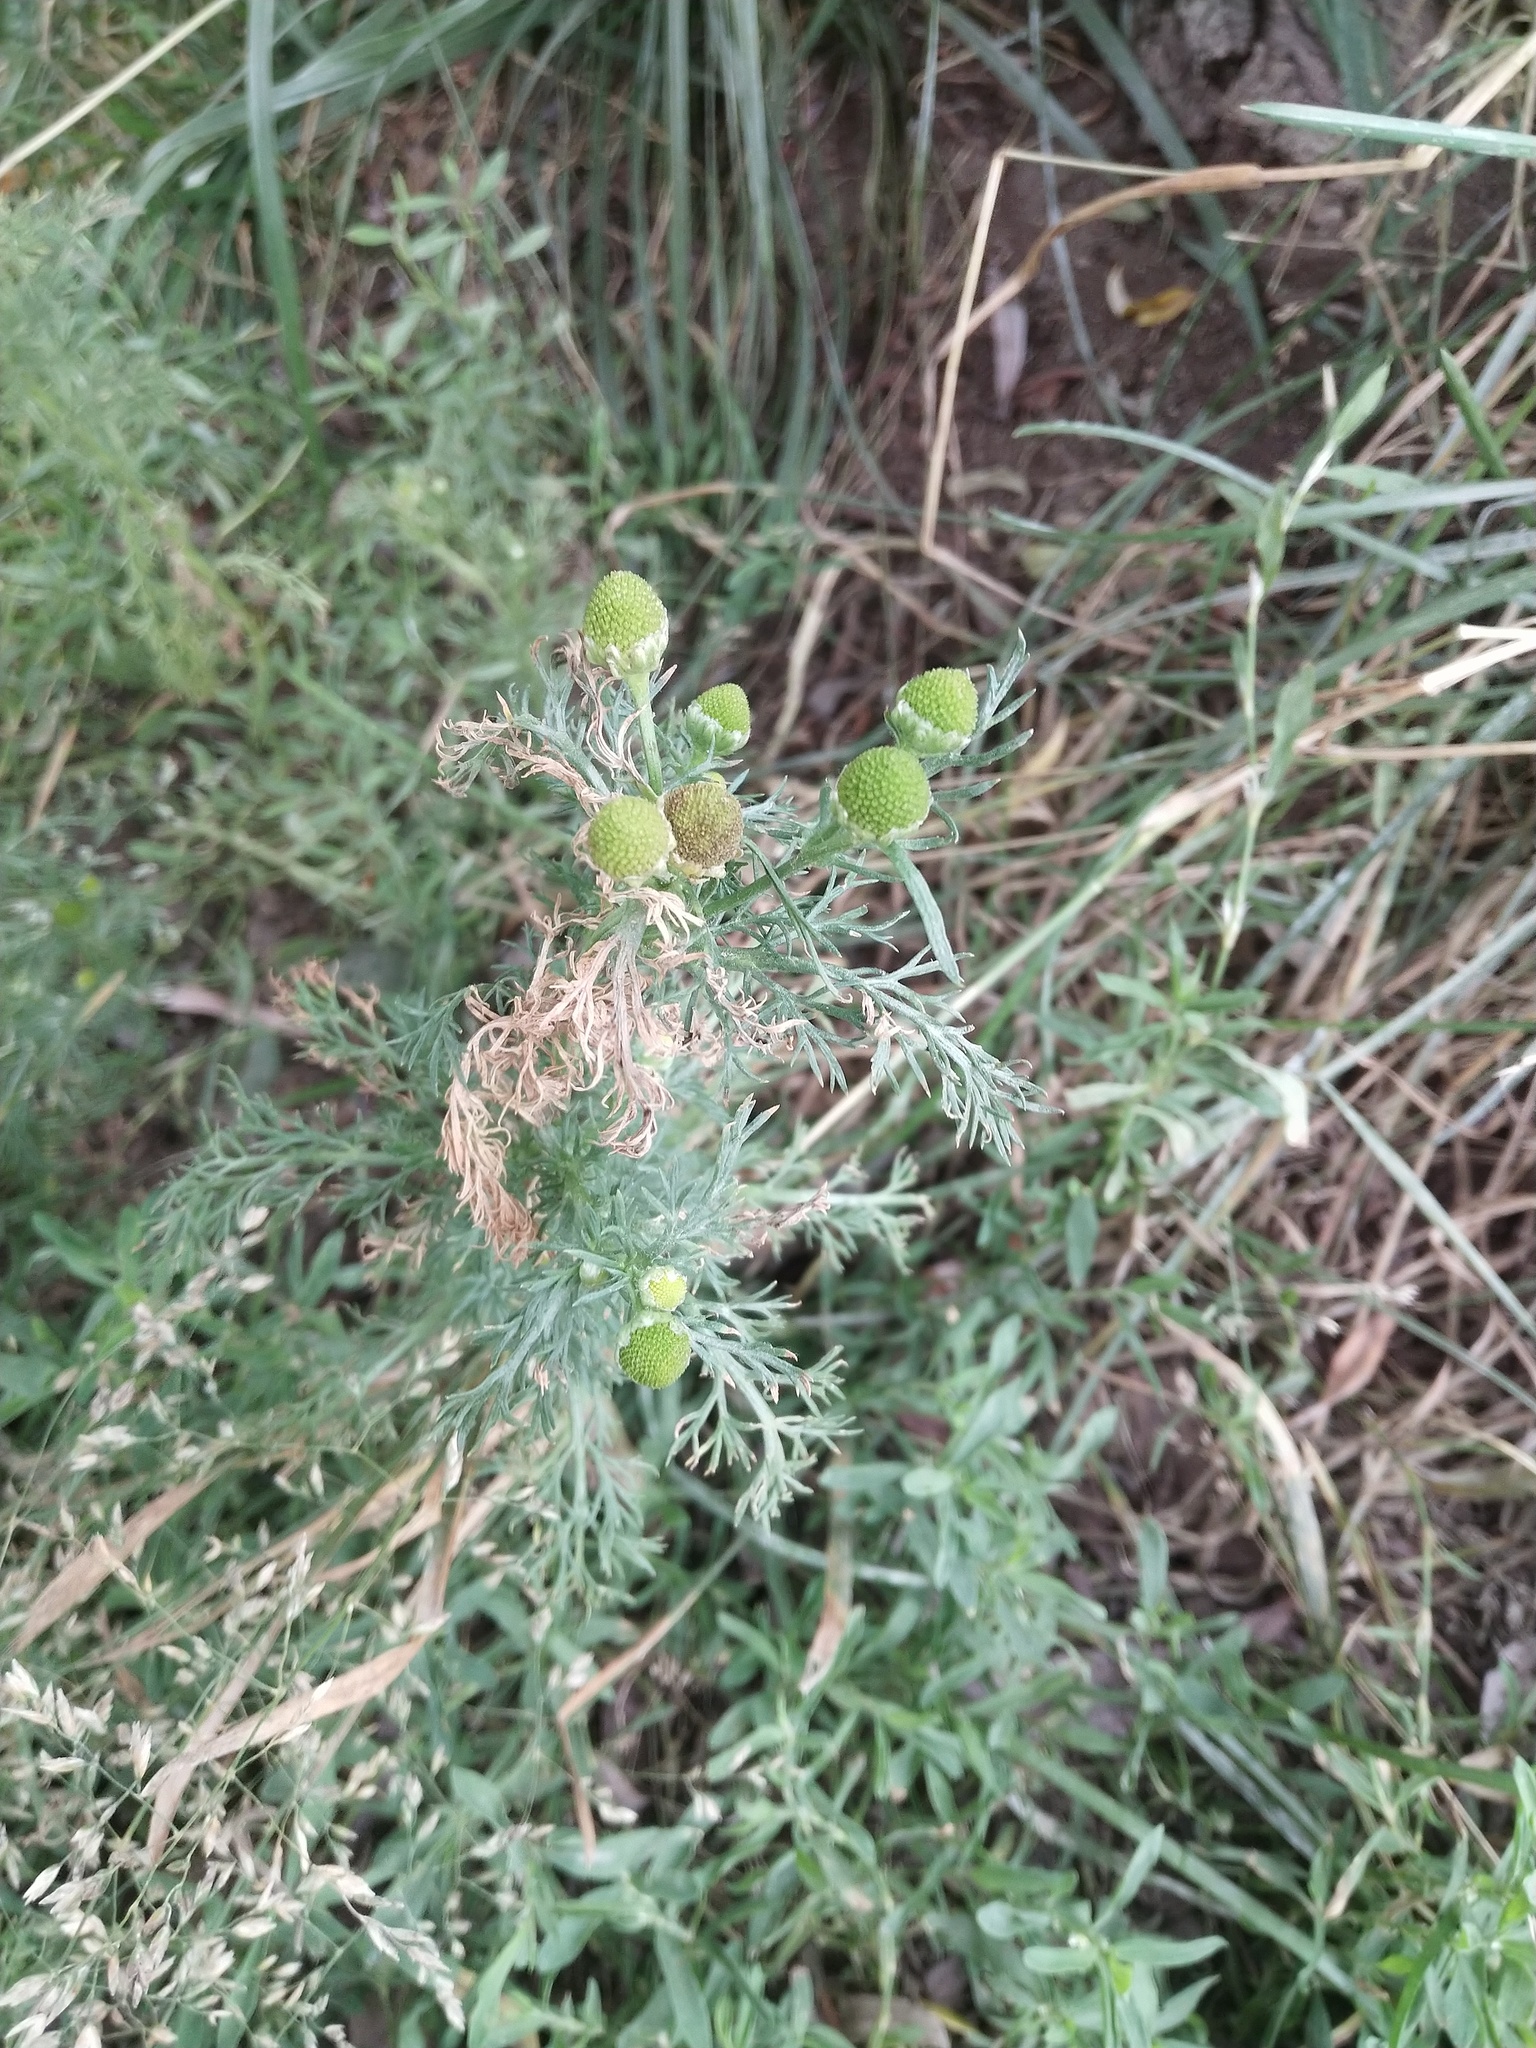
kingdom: Plantae
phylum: Tracheophyta
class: Magnoliopsida
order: Asterales
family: Asteraceae
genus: Matricaria
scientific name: Matricaria discoidea
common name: Disc mayweed
